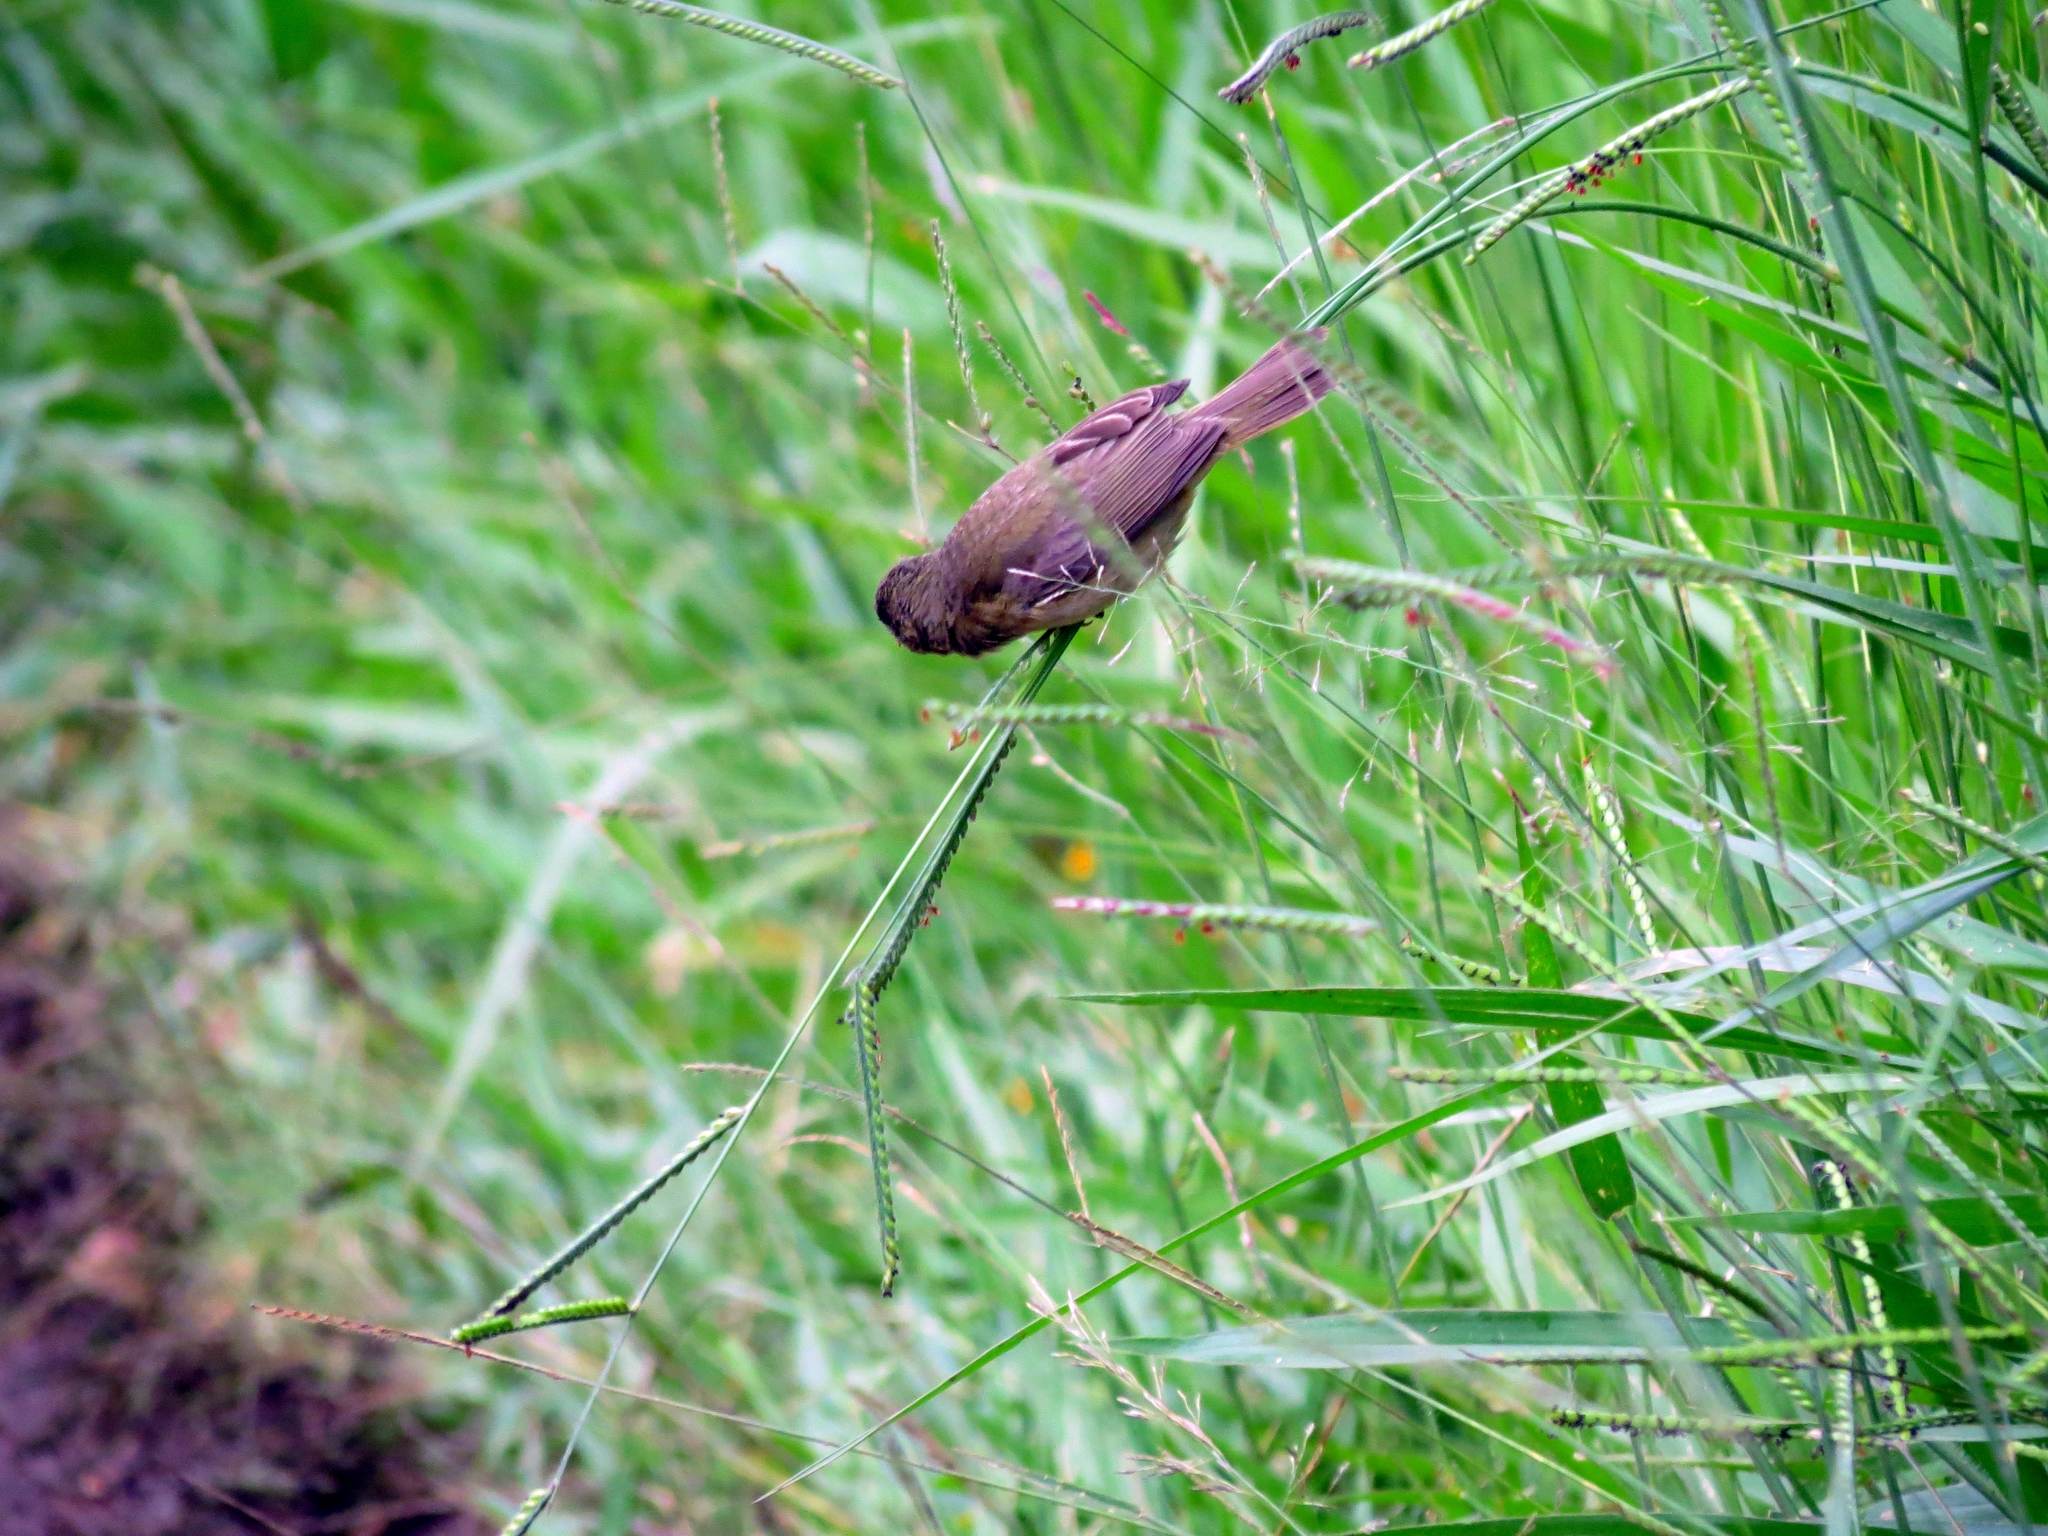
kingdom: Animalia
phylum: Chordata
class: Aves
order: Passeriformes
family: Thraupidae
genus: Sporophila
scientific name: Sporophila nigricollis
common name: Yellow-bellied seedeater
